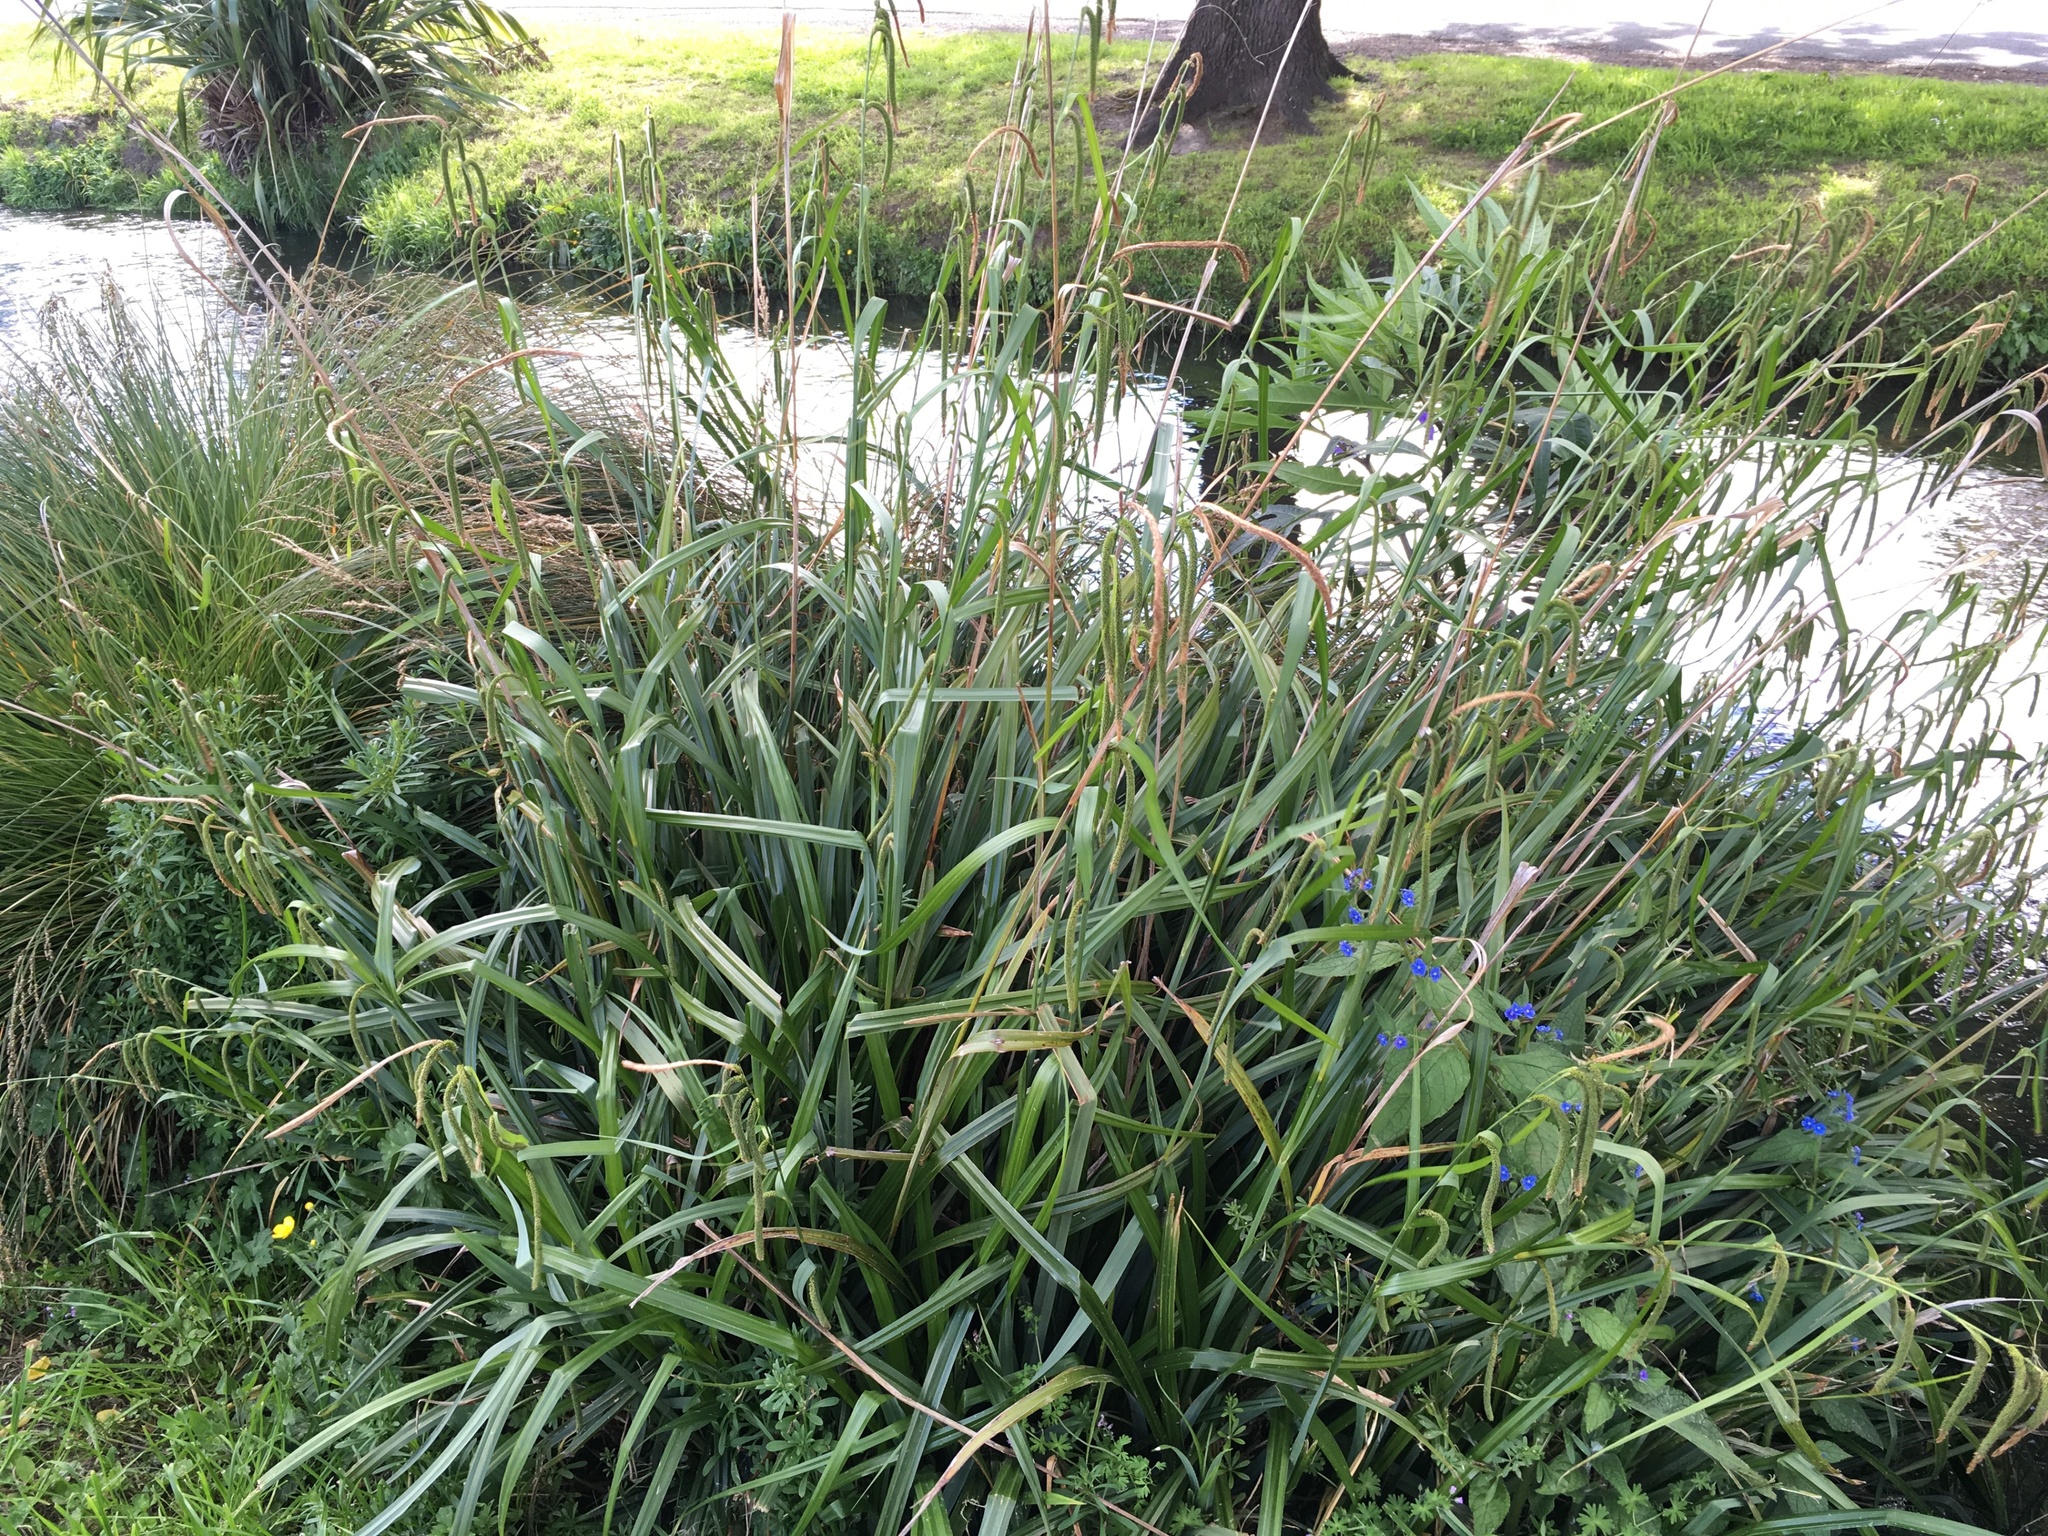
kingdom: Plantae
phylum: Tracheophyta
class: Liliopsida
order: Poales
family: Cyperaceae
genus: Carex
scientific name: Carex pendula
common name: Pendulous sedge
